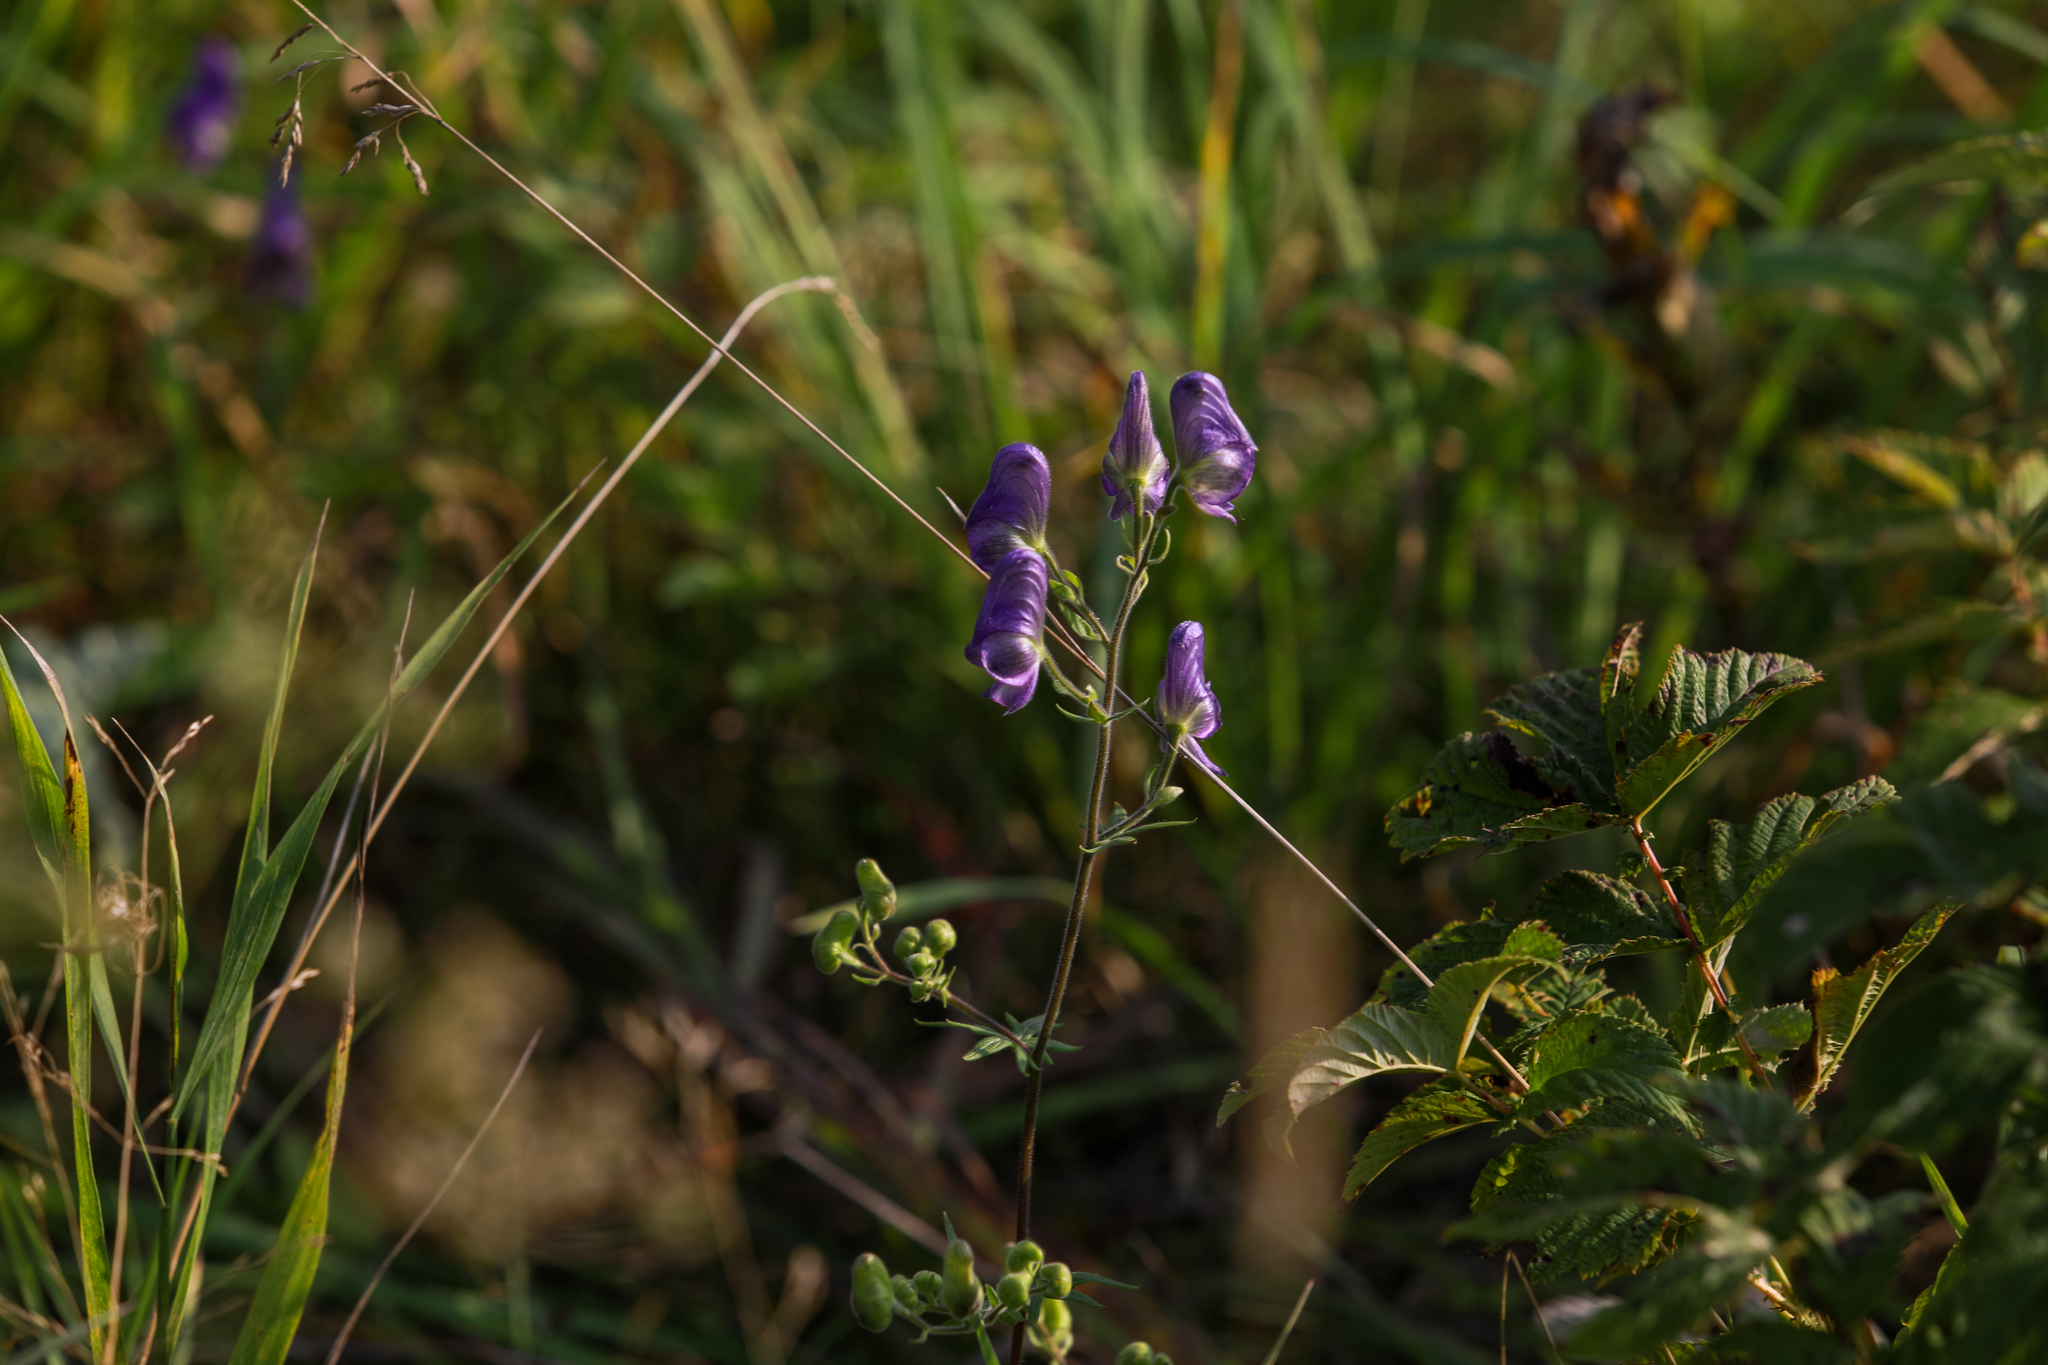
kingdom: Plantae
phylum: Tracheophyta
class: Magnoliopsida
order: Ranunculales
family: Ranunculaceae
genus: Aconitum
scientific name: Aconitum volubile
